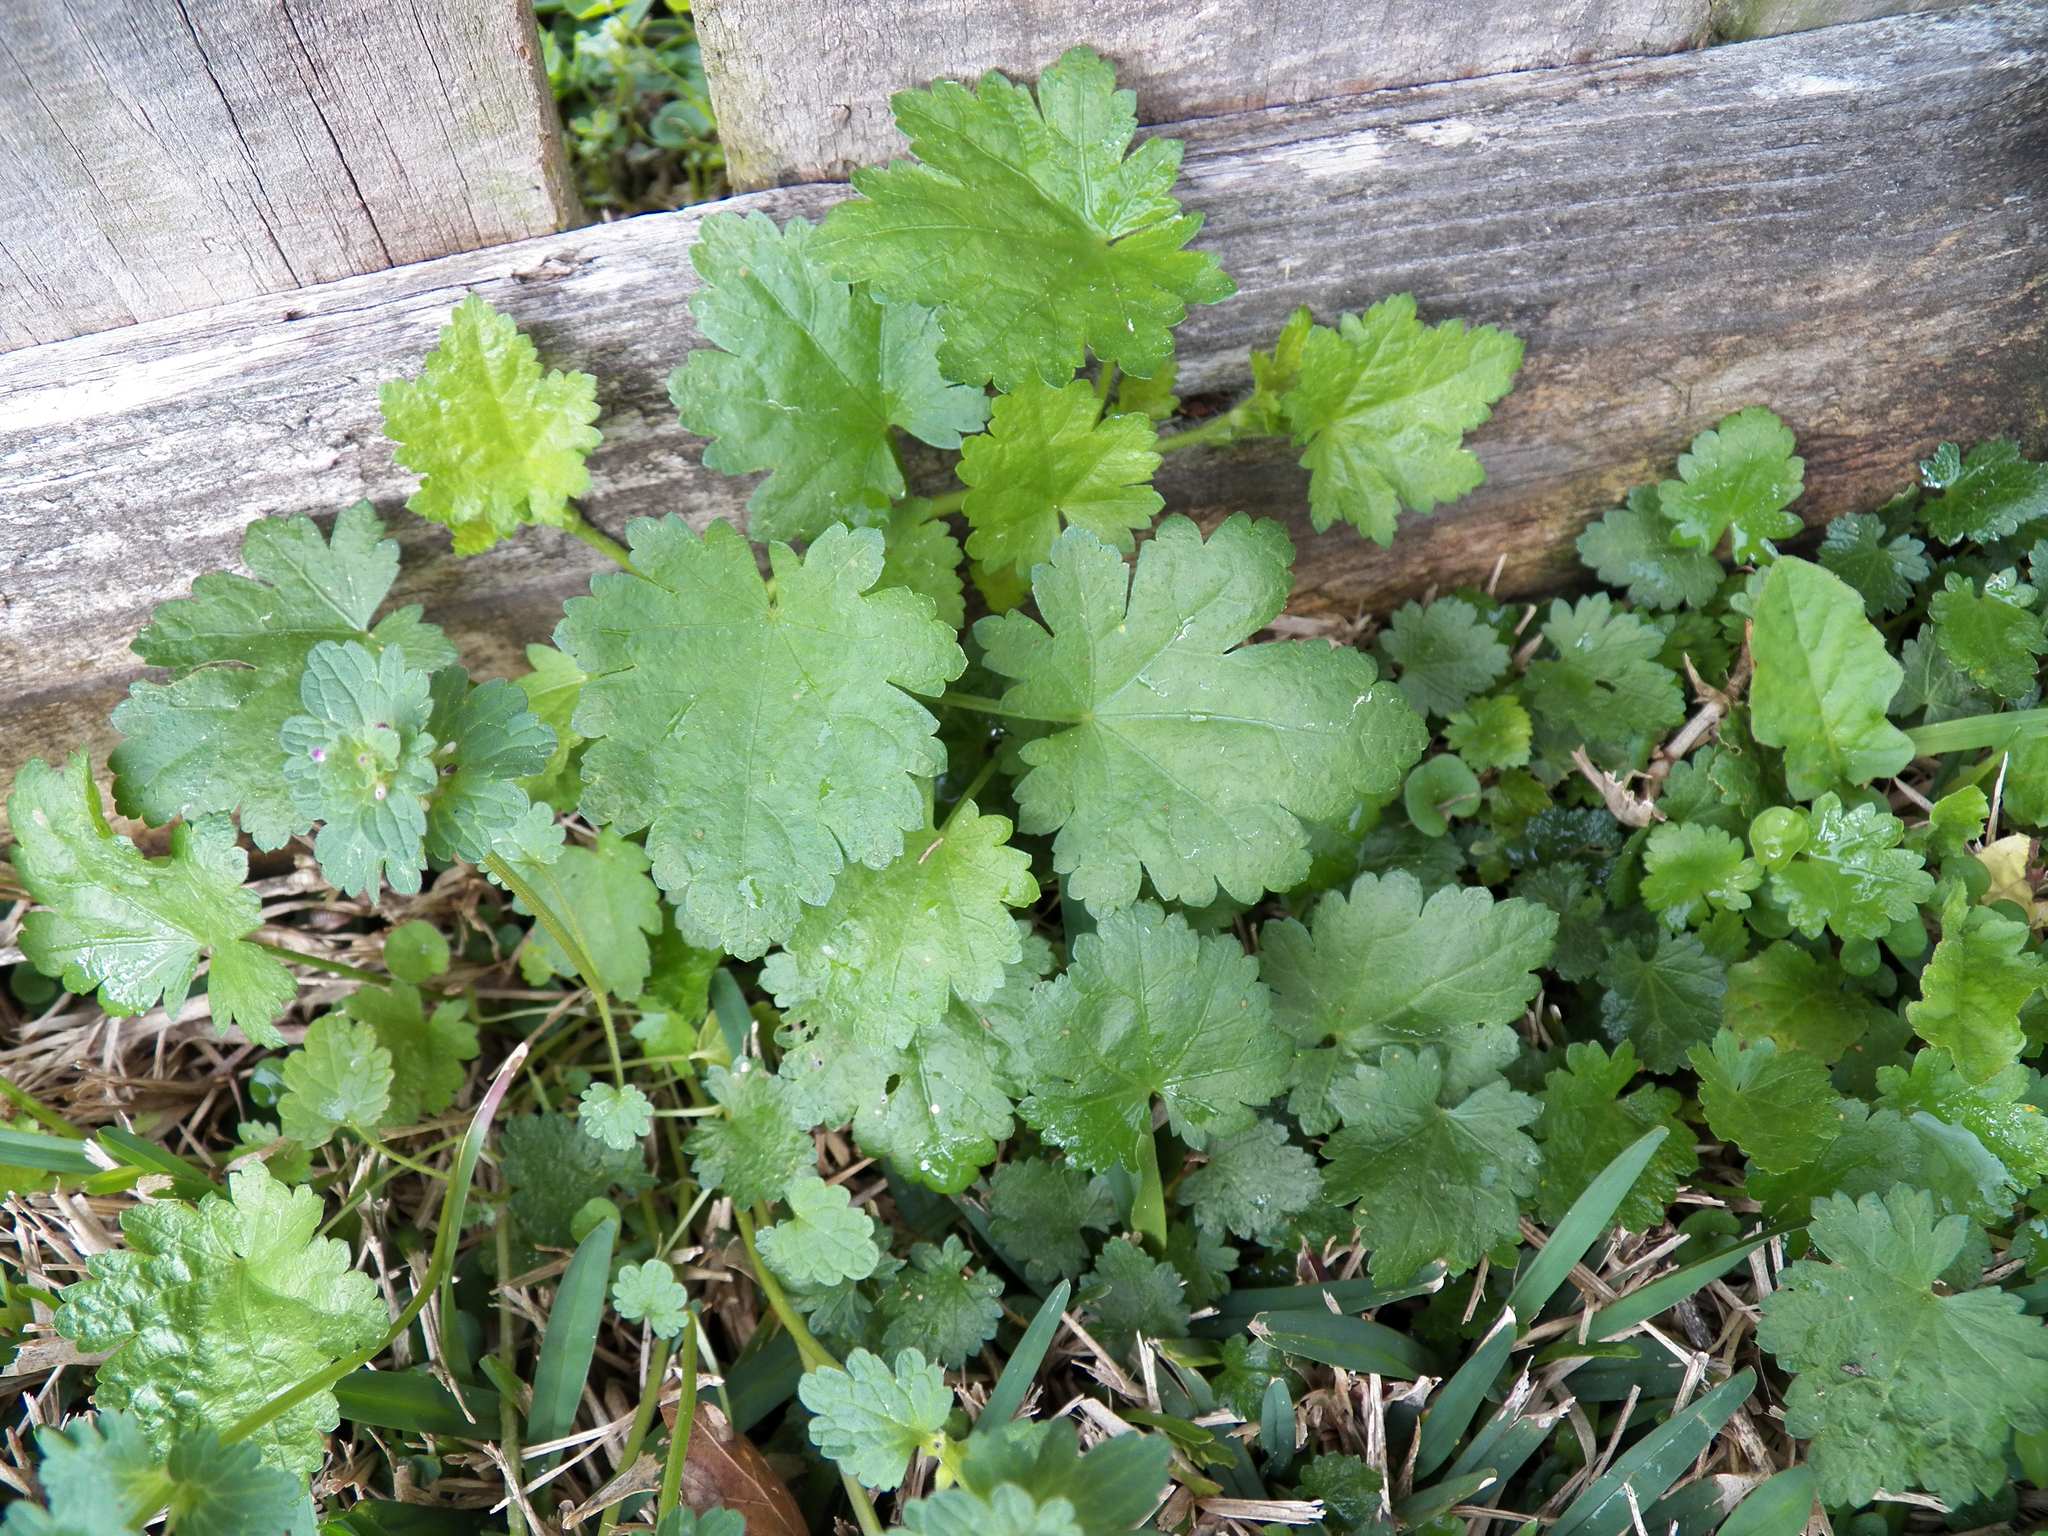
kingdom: Plantae
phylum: Tracheophyta
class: Magnoliopsida
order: Malvales
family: Malvaceae
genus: Modiola
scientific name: Modiola caroliniana
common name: Carolina bristlemallow
